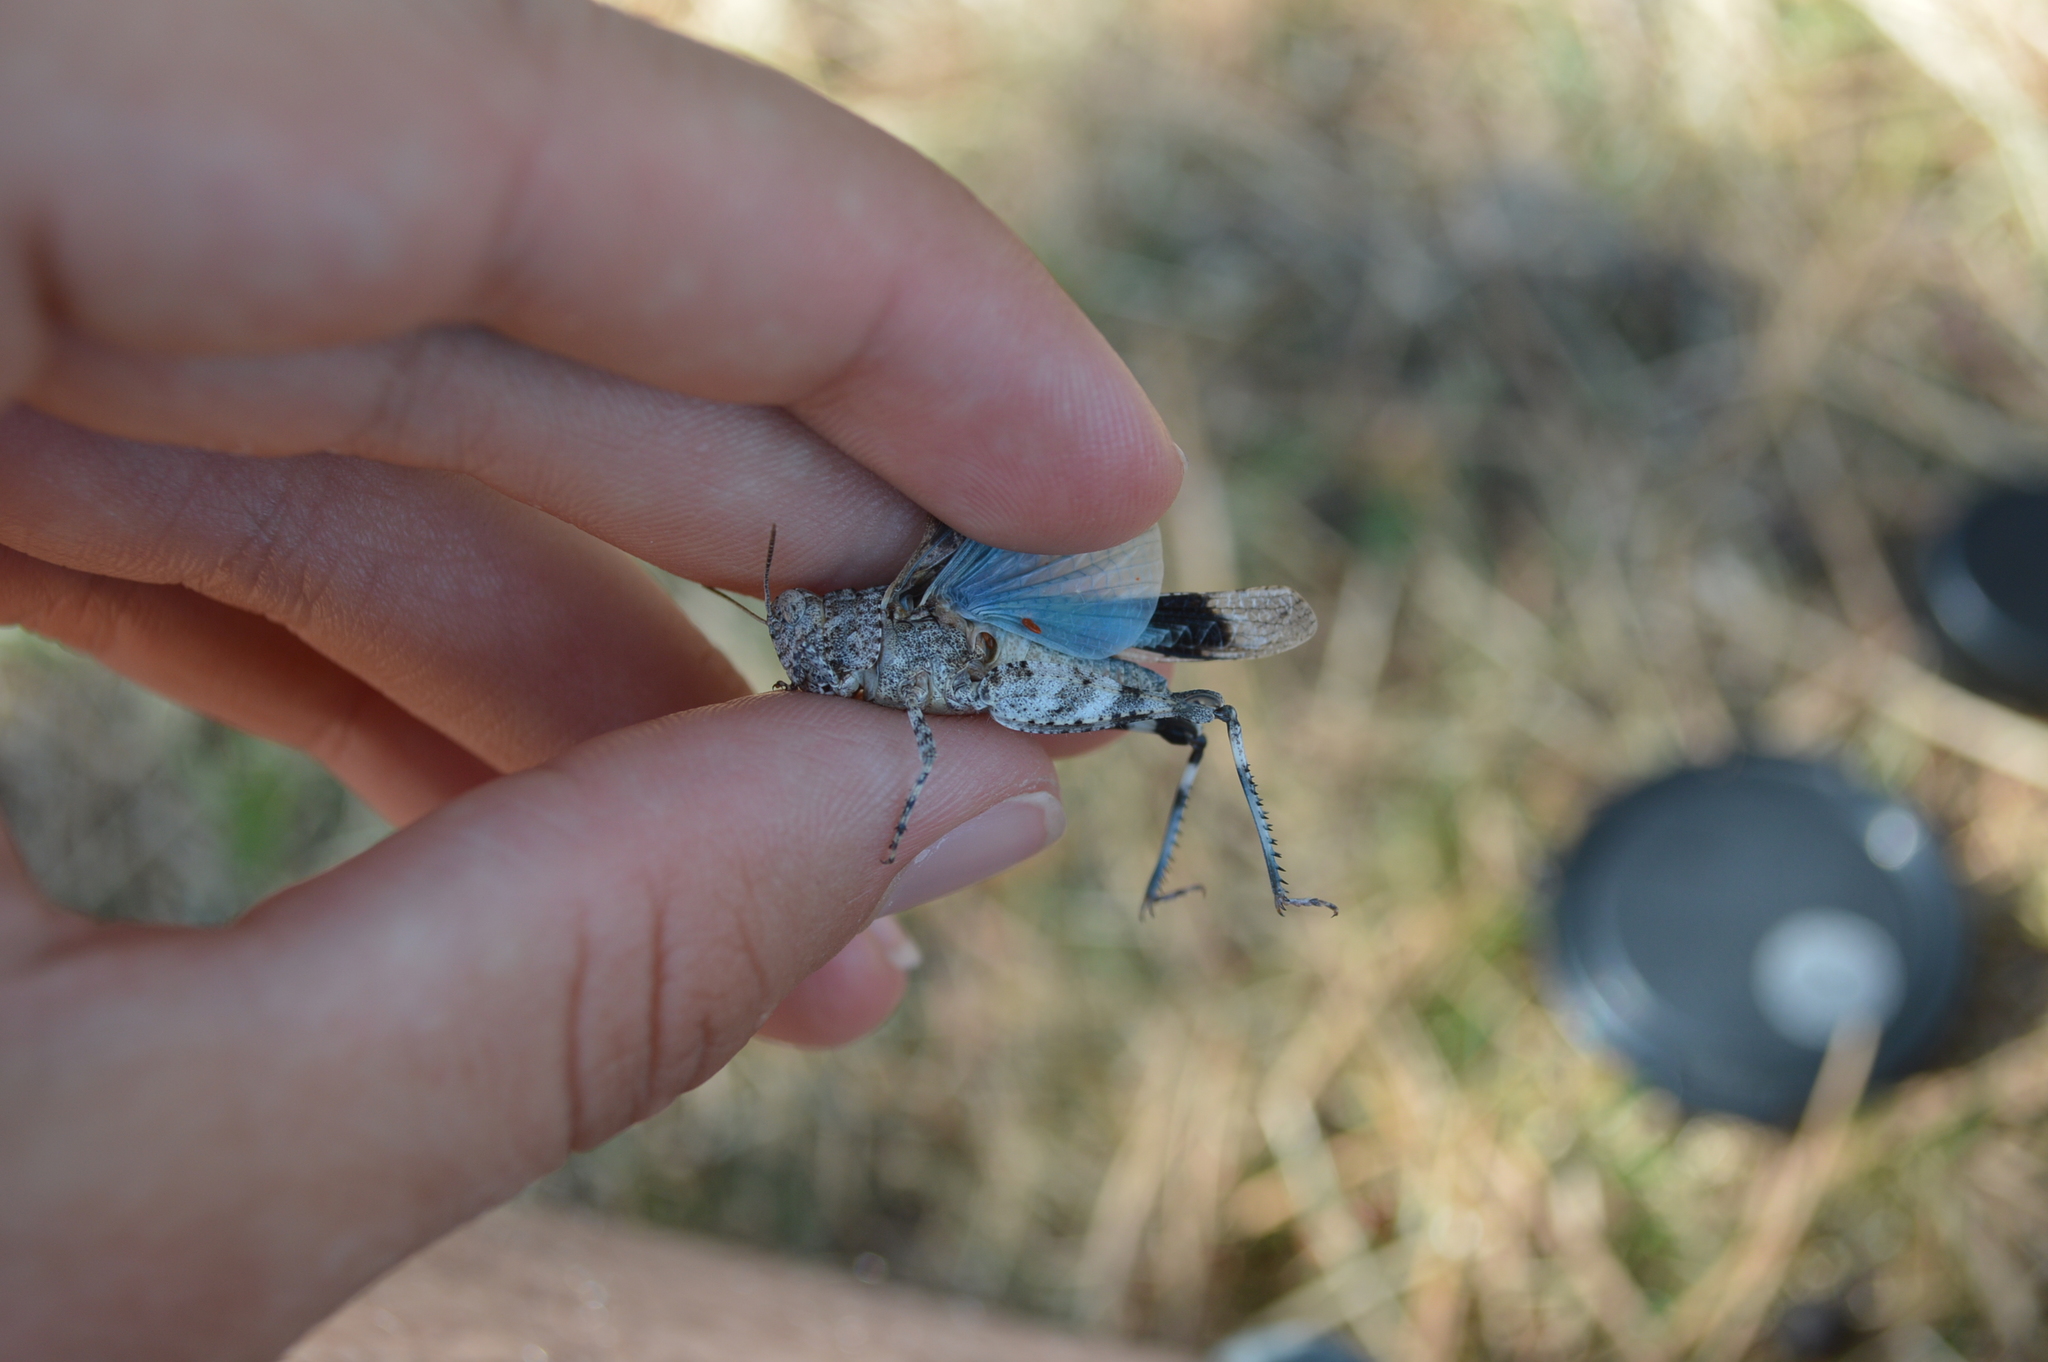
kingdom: Animalia
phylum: Arthropoda
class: Insecta
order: Orthoptera
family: Acrididae
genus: Oedipoda
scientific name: Oedipoda caerulescens
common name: Blue-winged grasshopper
